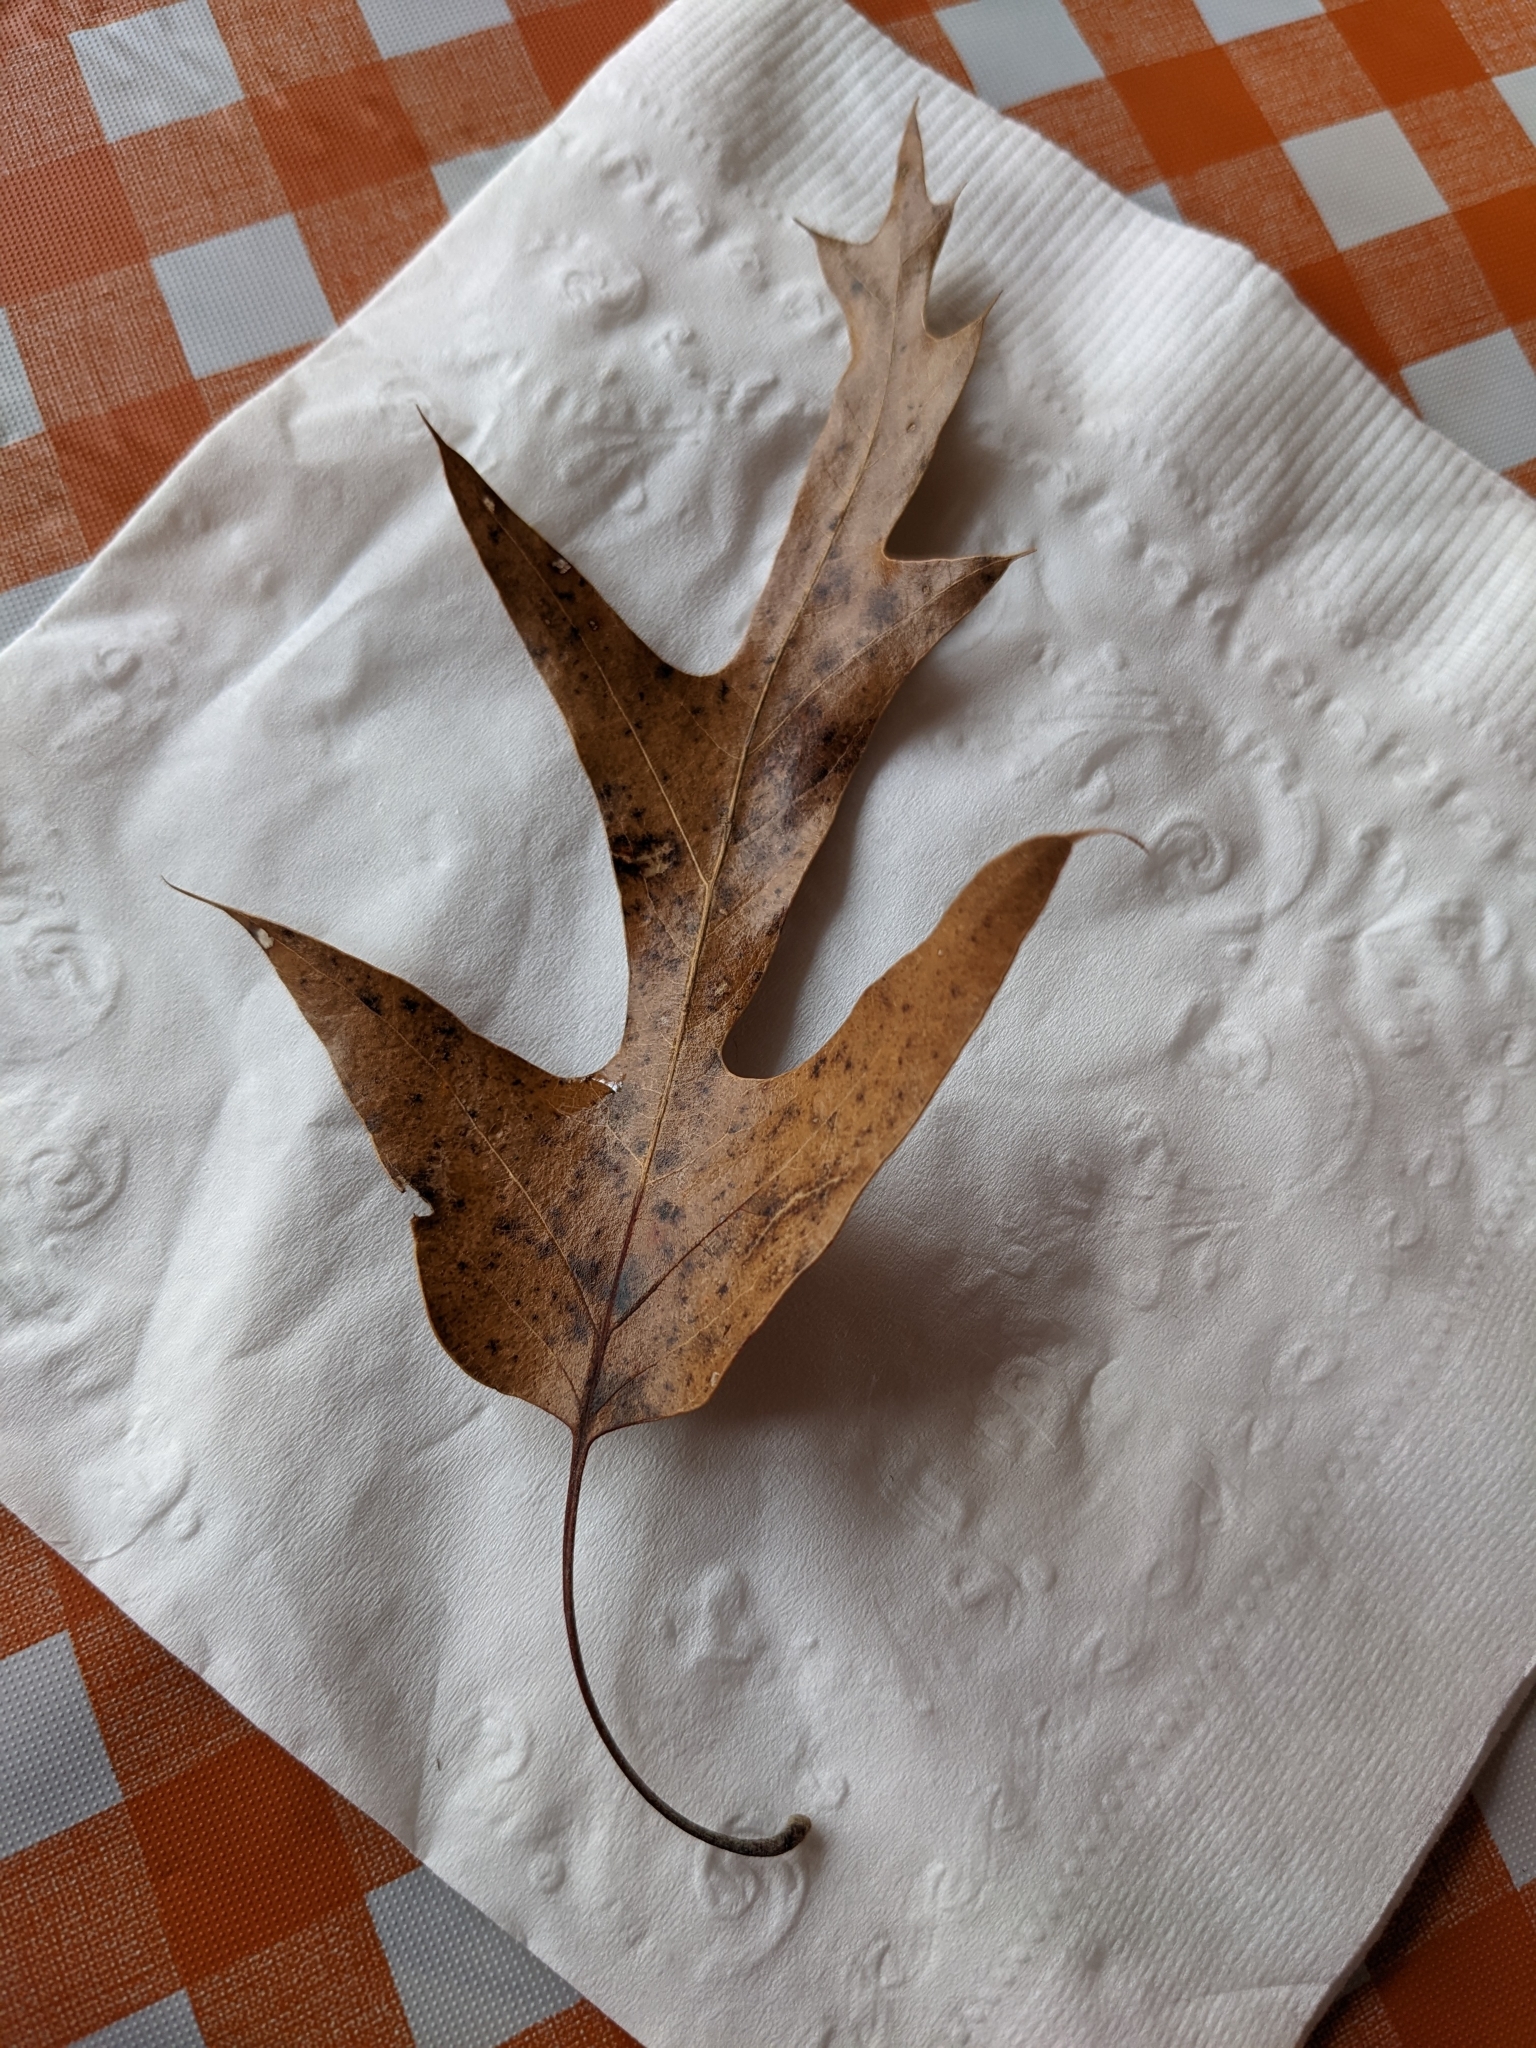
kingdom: Plantae
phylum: Tracheophyta
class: Magnoliopsida
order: Fagales
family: Fagaceae
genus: Quercus
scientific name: Quercus falcata
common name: Southern red oak
